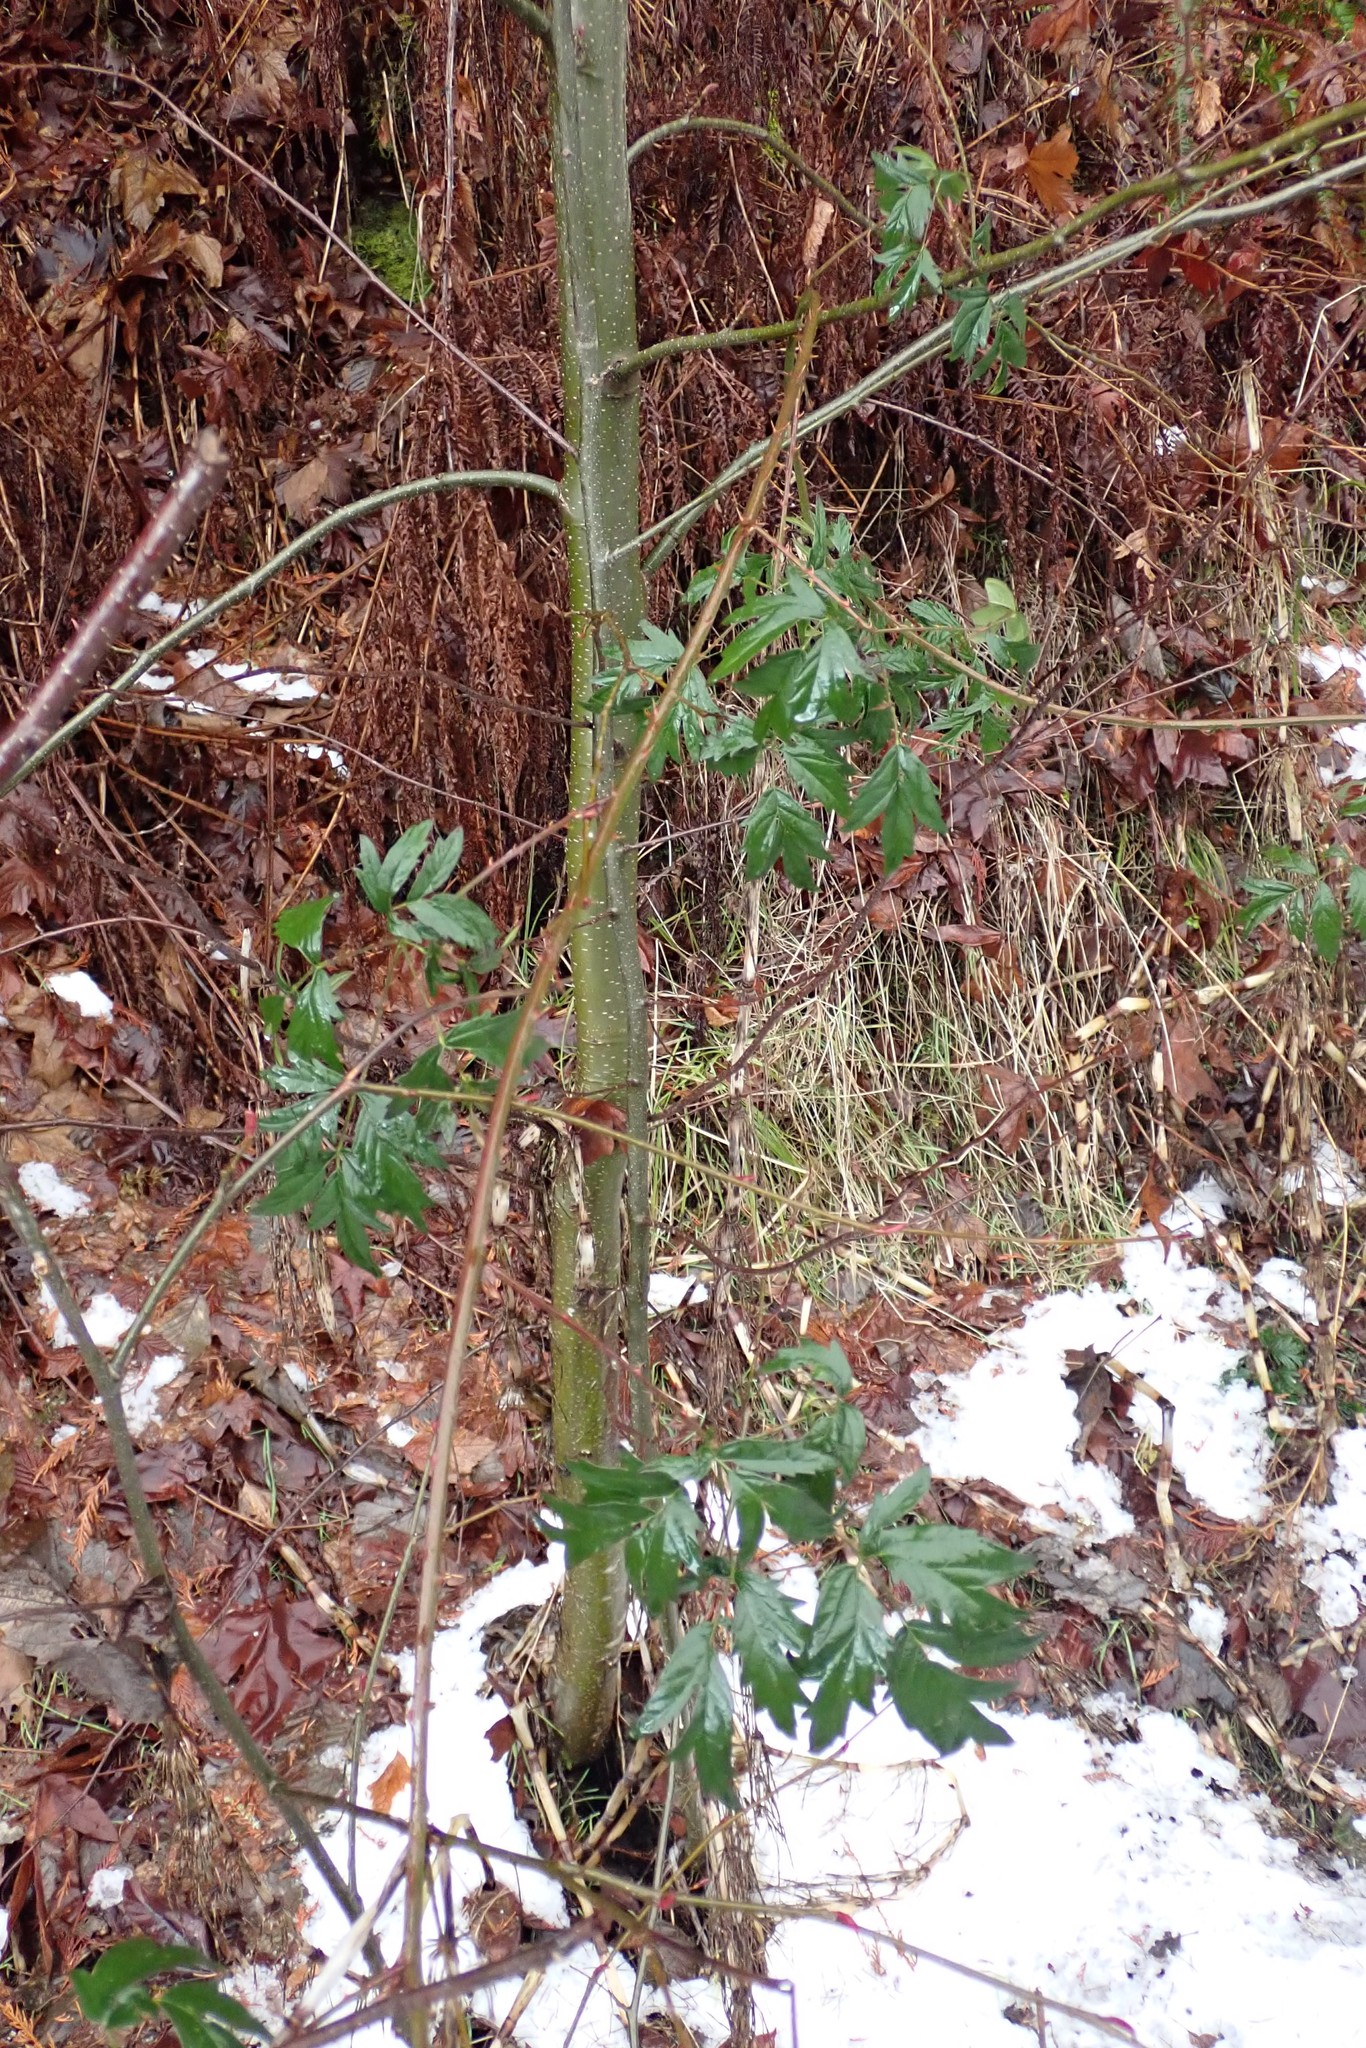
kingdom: Plantae
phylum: Tracheophyta
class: Magnoliopsida
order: Rosales
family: Rosaceae
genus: Rubus
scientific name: Rubus laciniatus
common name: Evergreen blackberry
